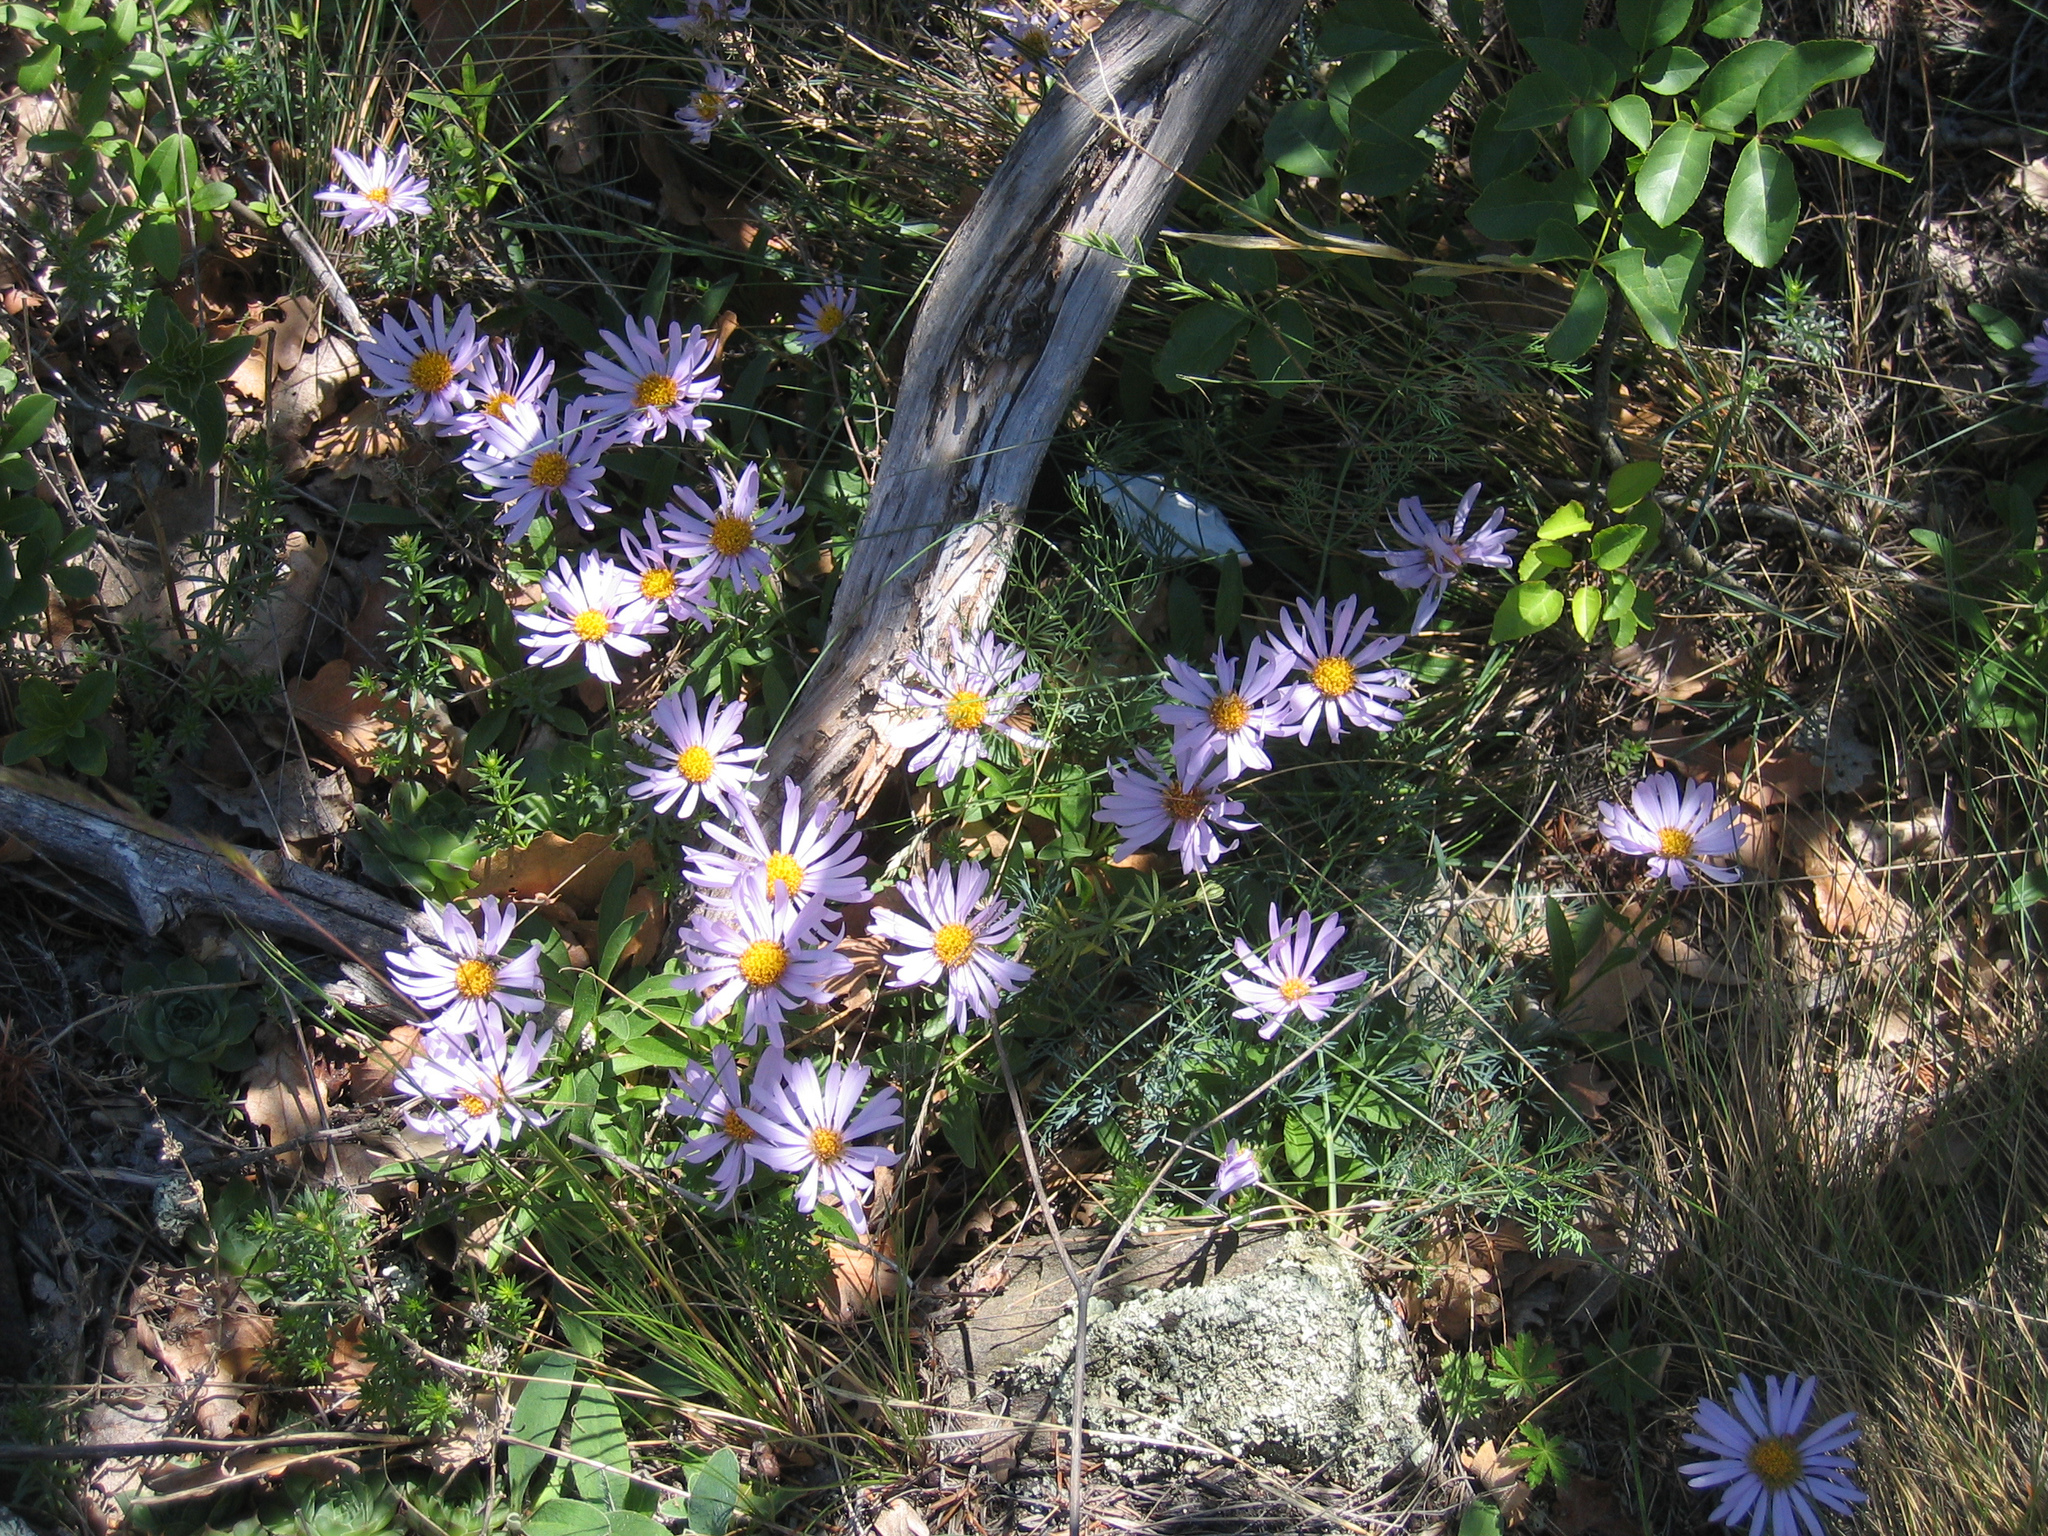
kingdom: Plantae
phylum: Tracheophyta
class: Magnoliopsida
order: Asterales
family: Asteraceae
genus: Aster
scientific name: Aster alpinus
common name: Alpine aster
